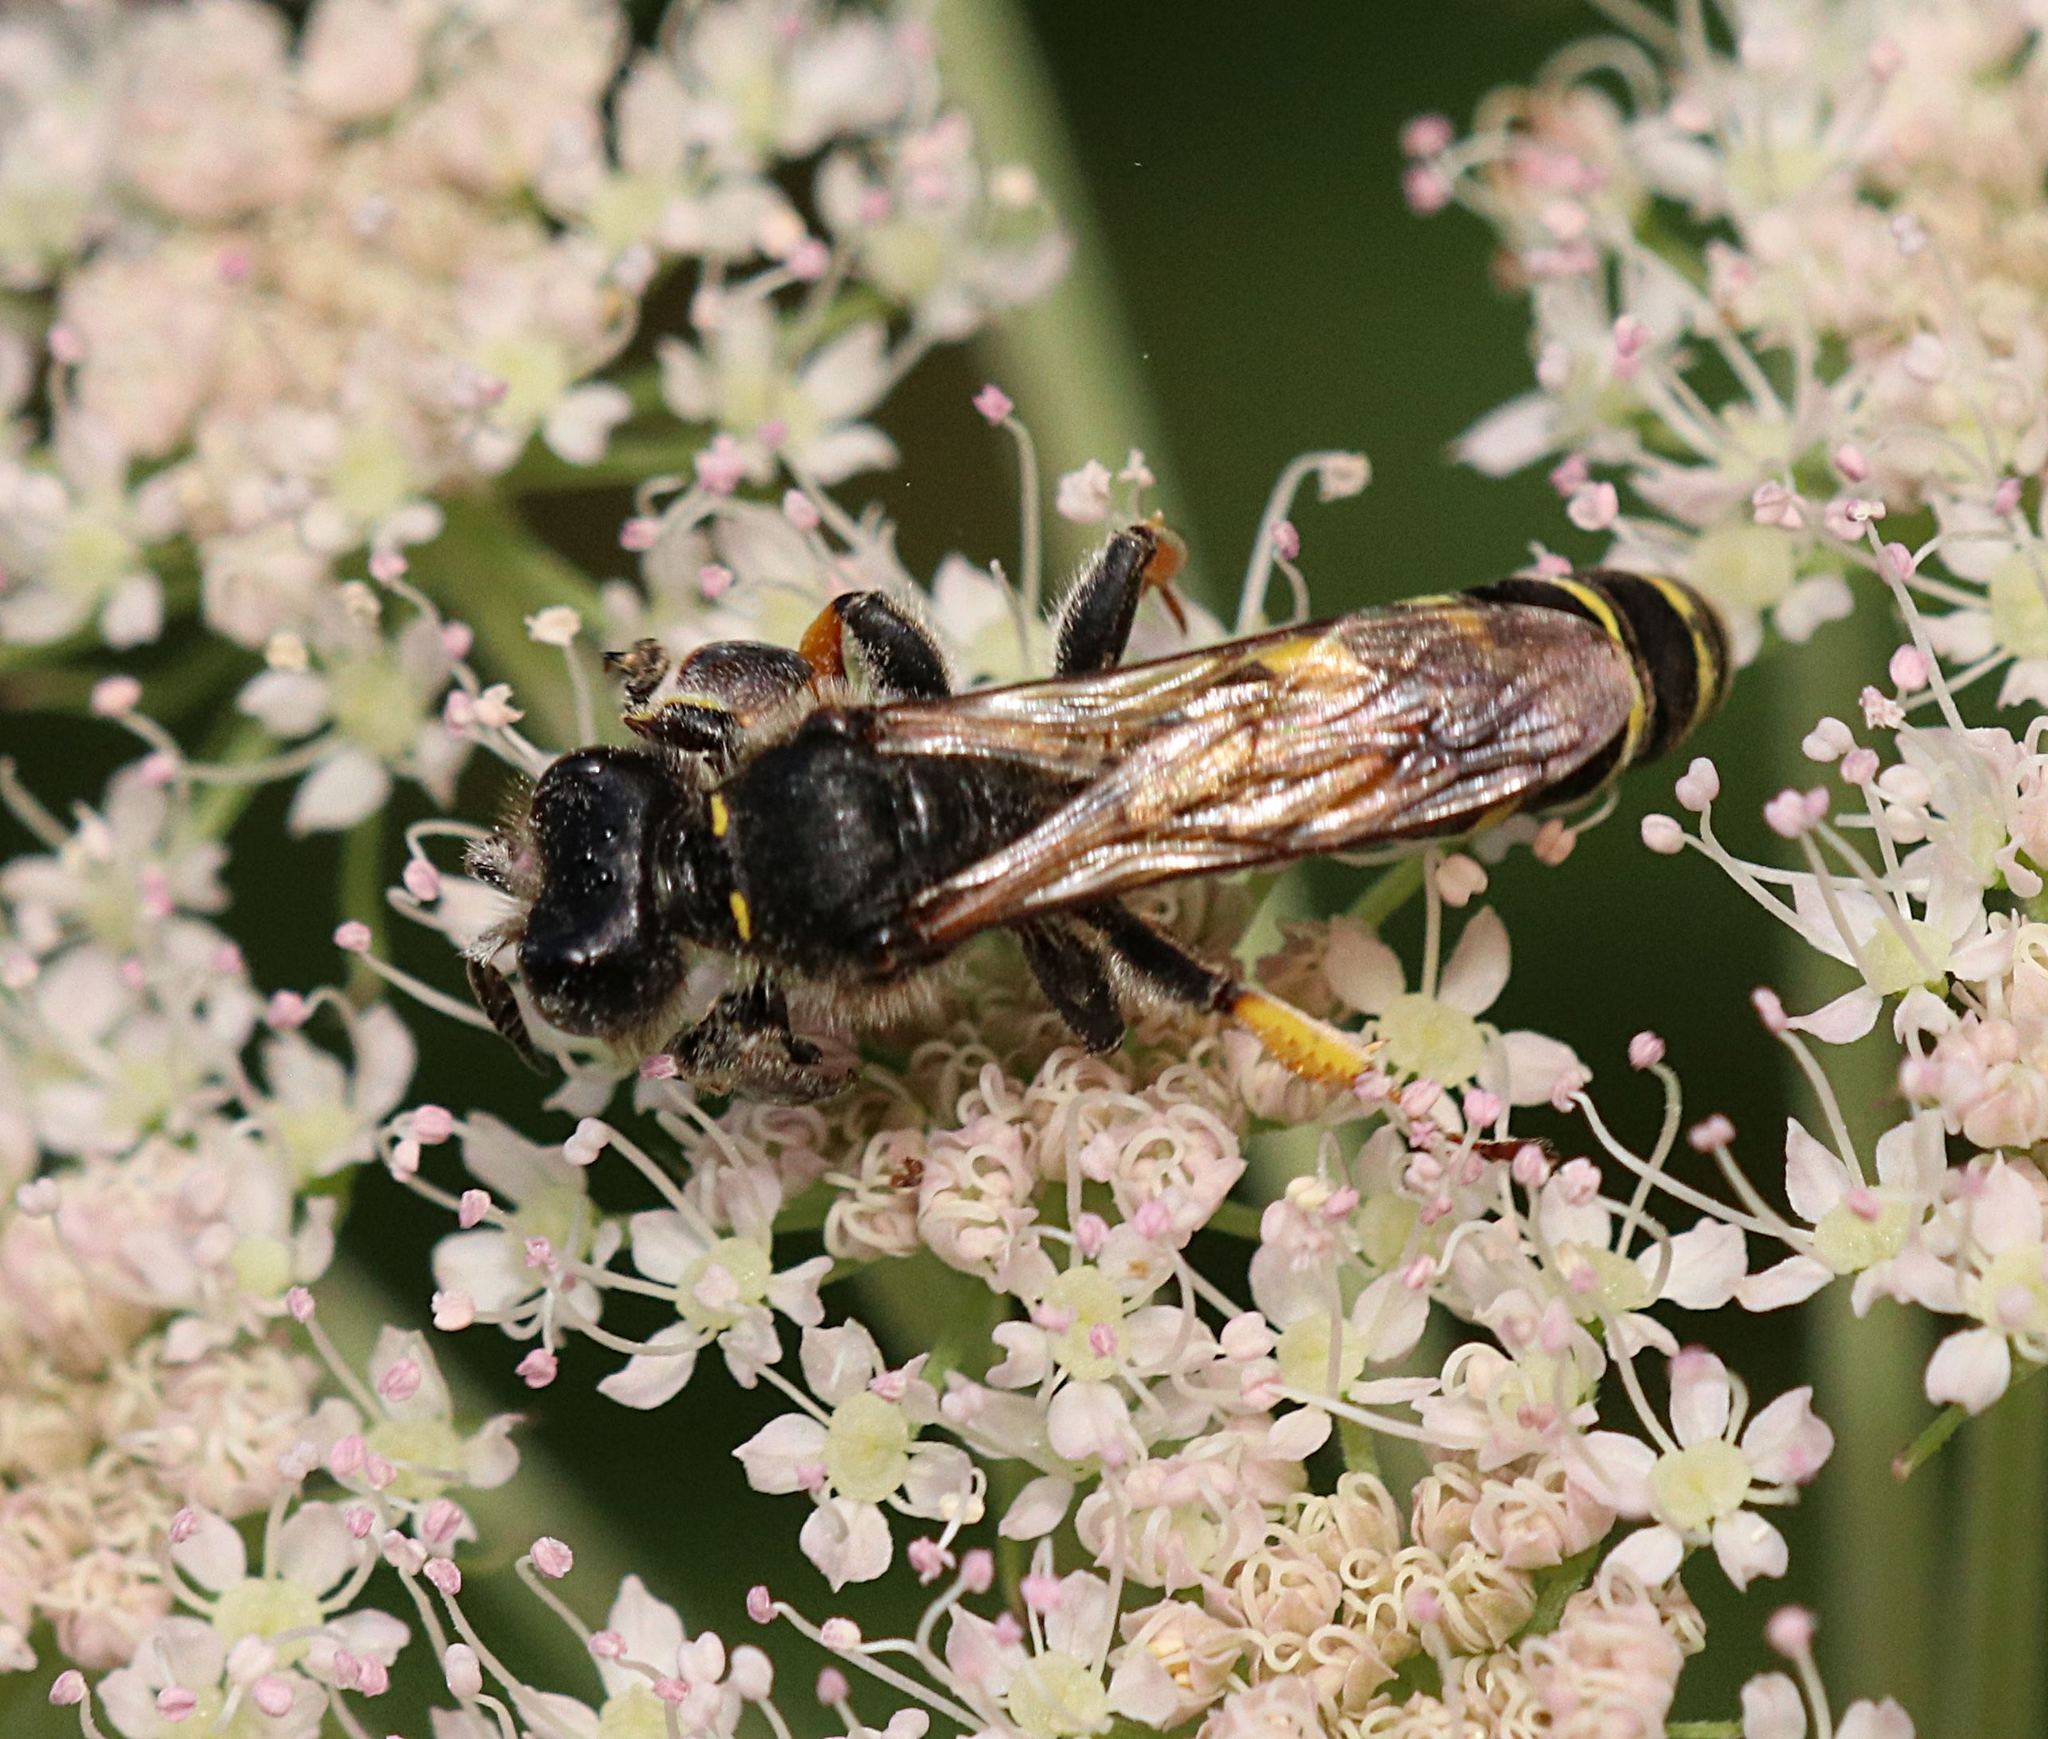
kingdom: Animalia
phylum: Arthropoda
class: Insecta
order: Hymenoptera
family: Crabronidae
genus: Crabro
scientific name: Crabro cribrarius
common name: Slender bodied digger wasp
